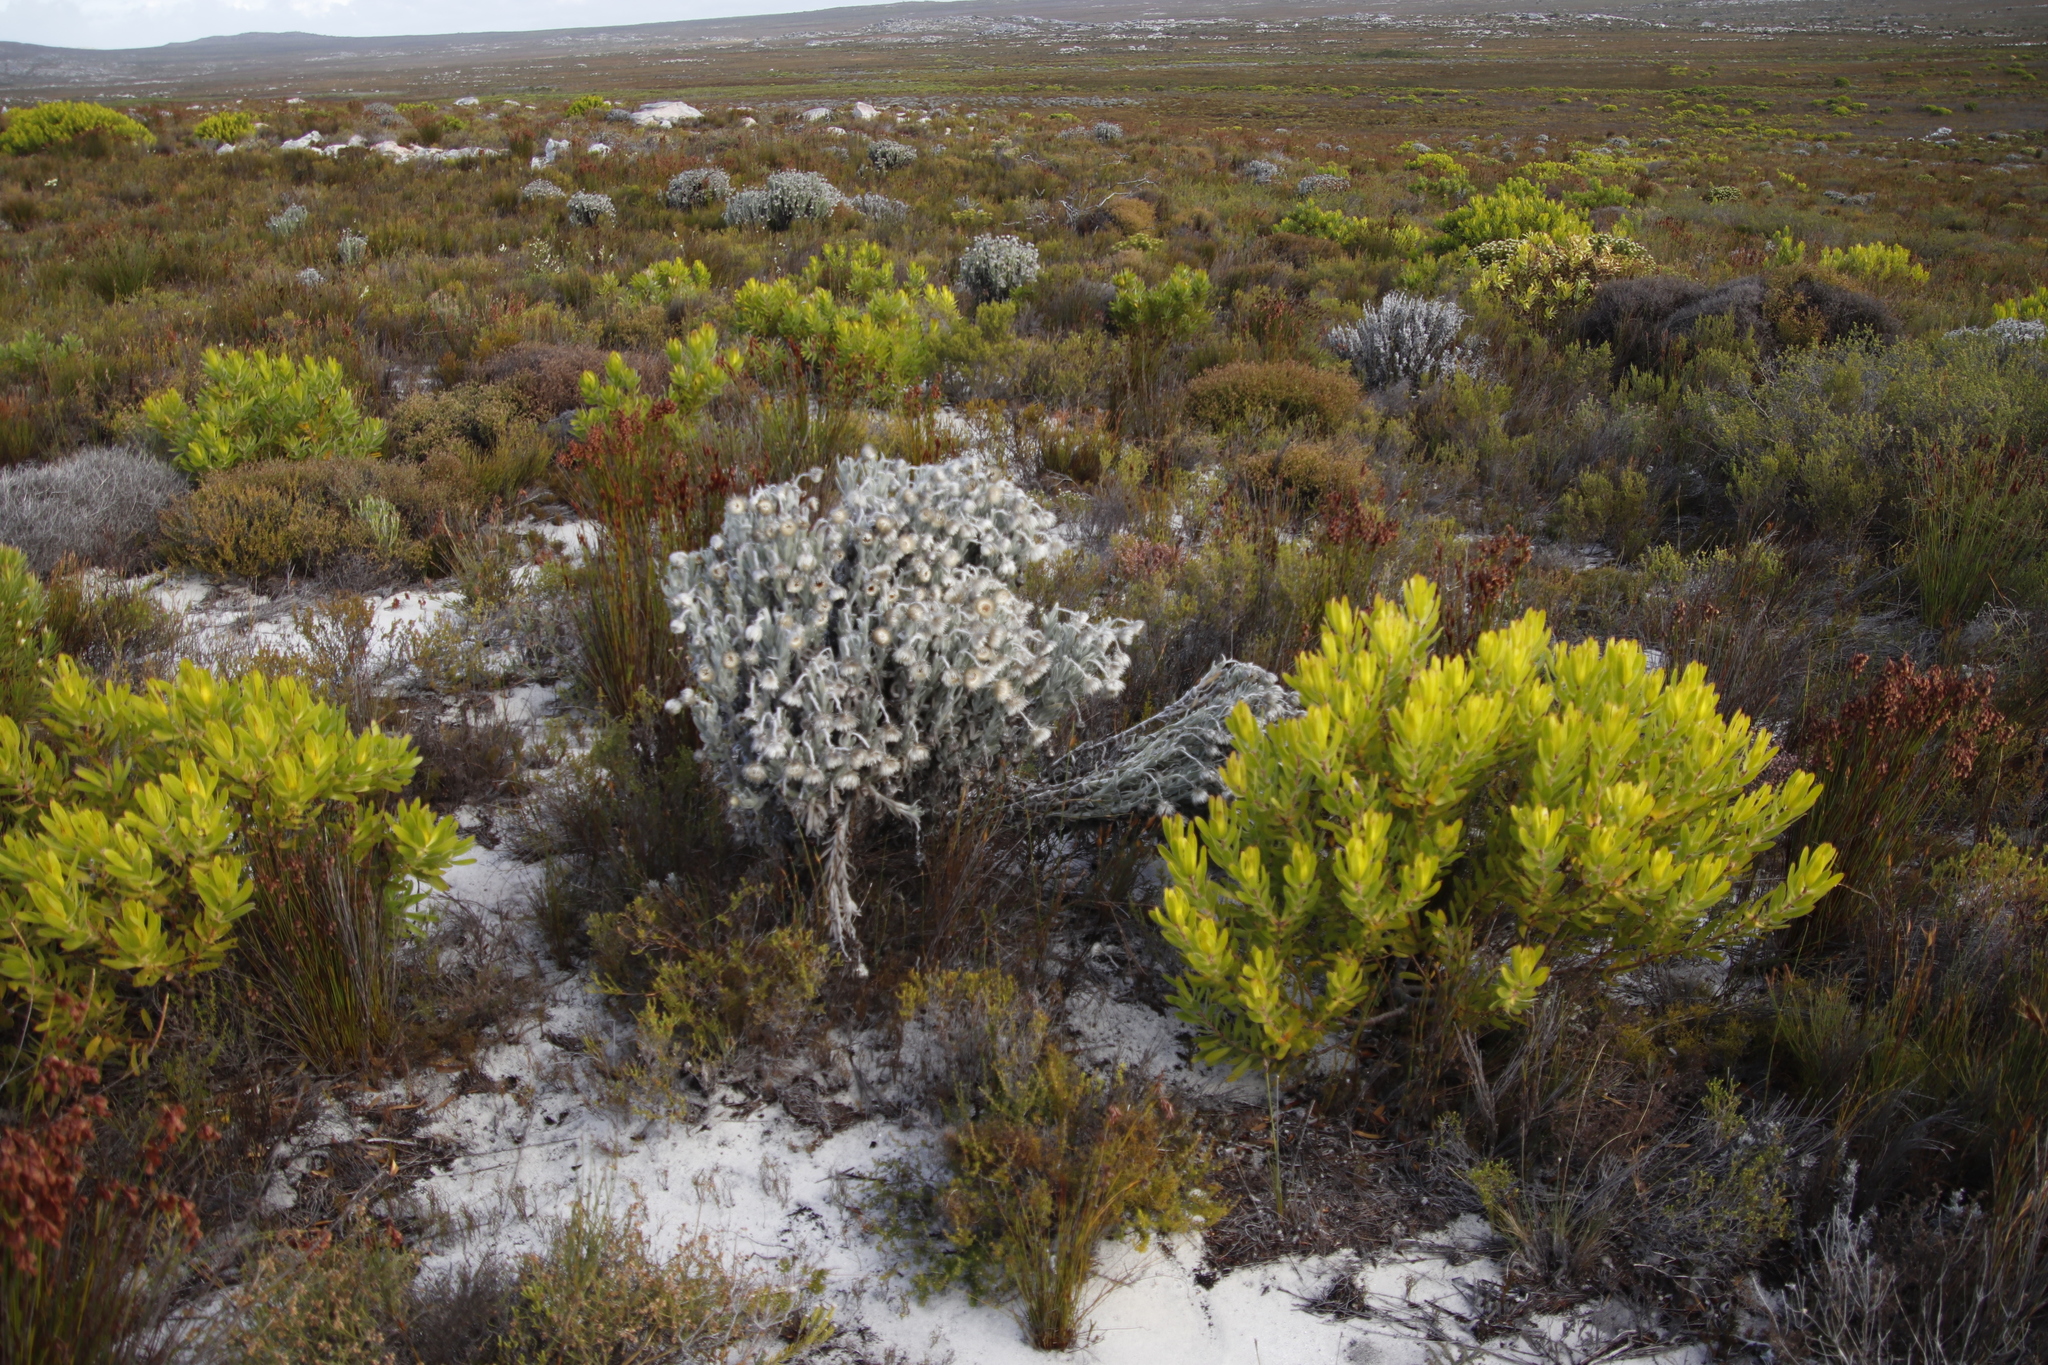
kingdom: Plantae
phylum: Tracheophyta
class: Magnoliopsida
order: Asterales
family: Asteraceae
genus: Syncarpha
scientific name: Syncarpha vestita
